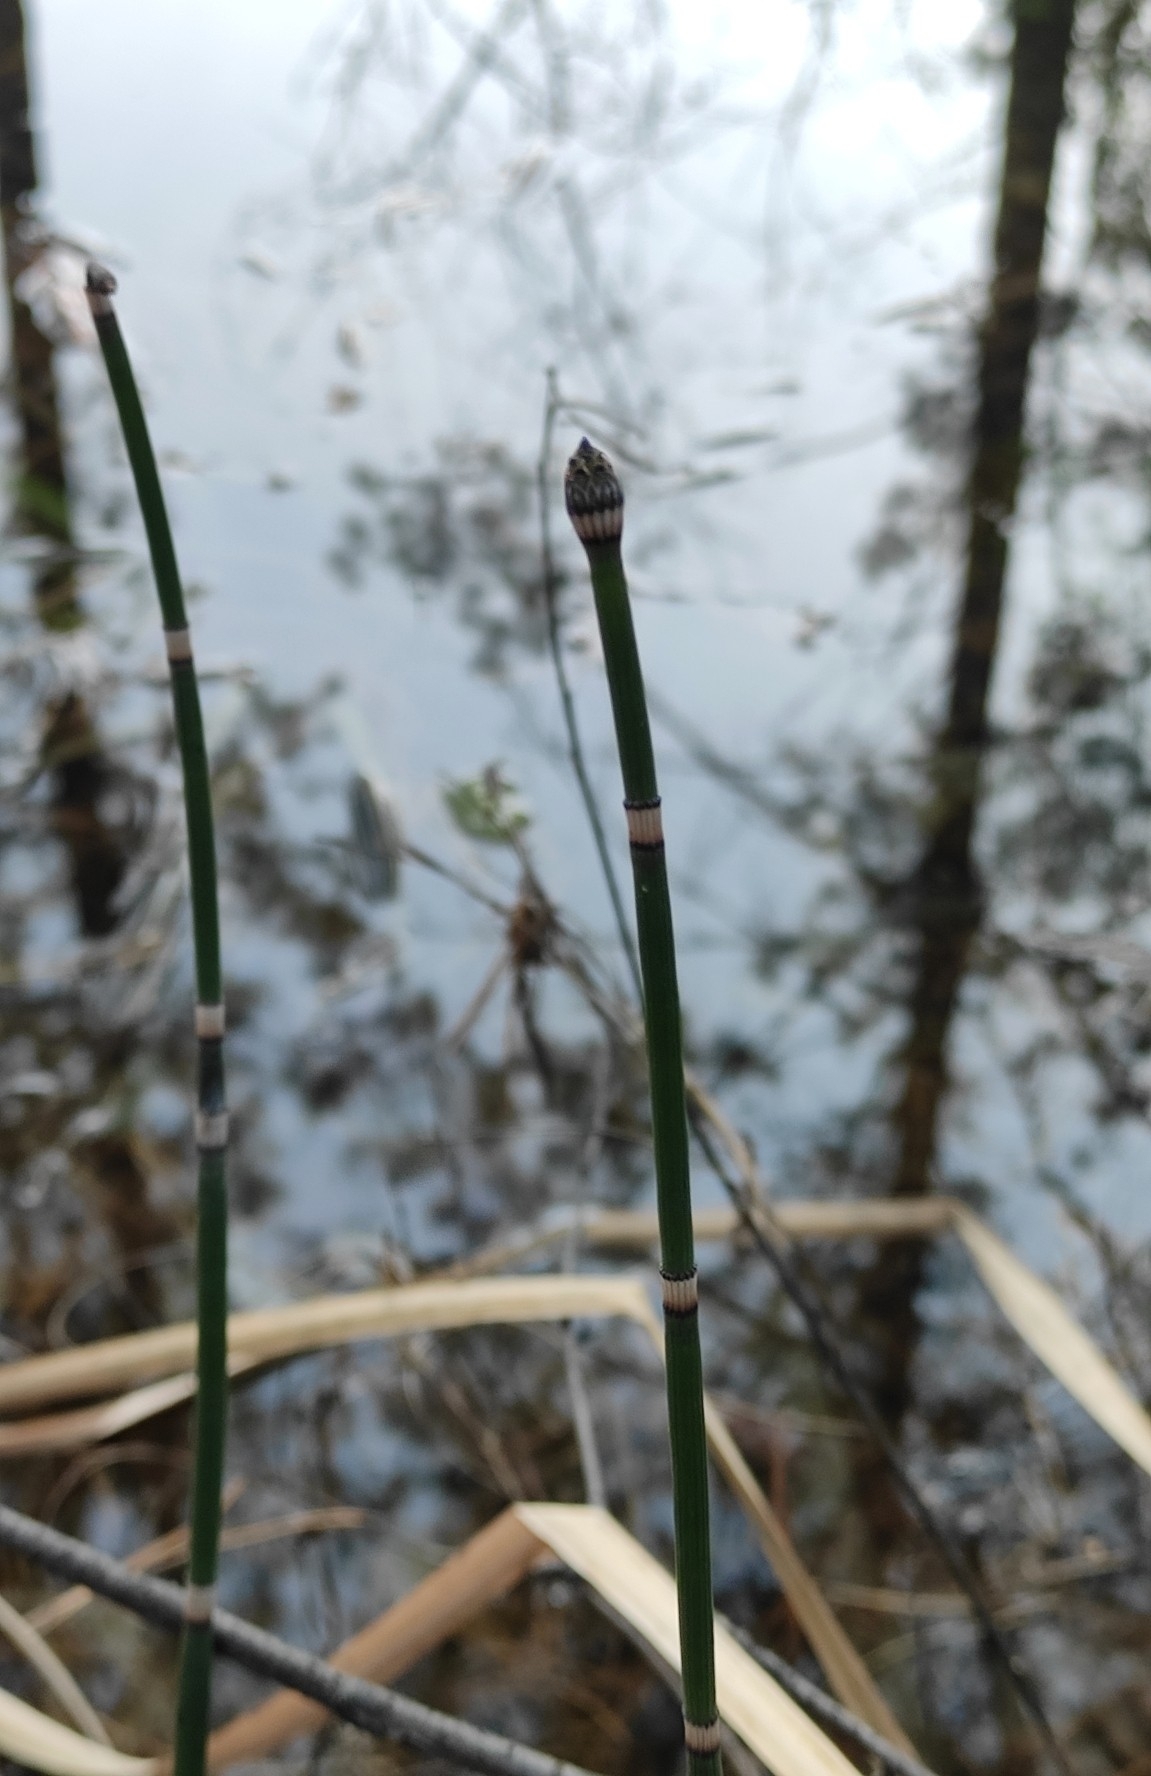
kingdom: Plantae
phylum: Tracheophyta
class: Polypodiopsida
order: Equisetales
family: Equisetaceae
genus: Equisetum
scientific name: Equisetum hyemale
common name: Rough horsetail
